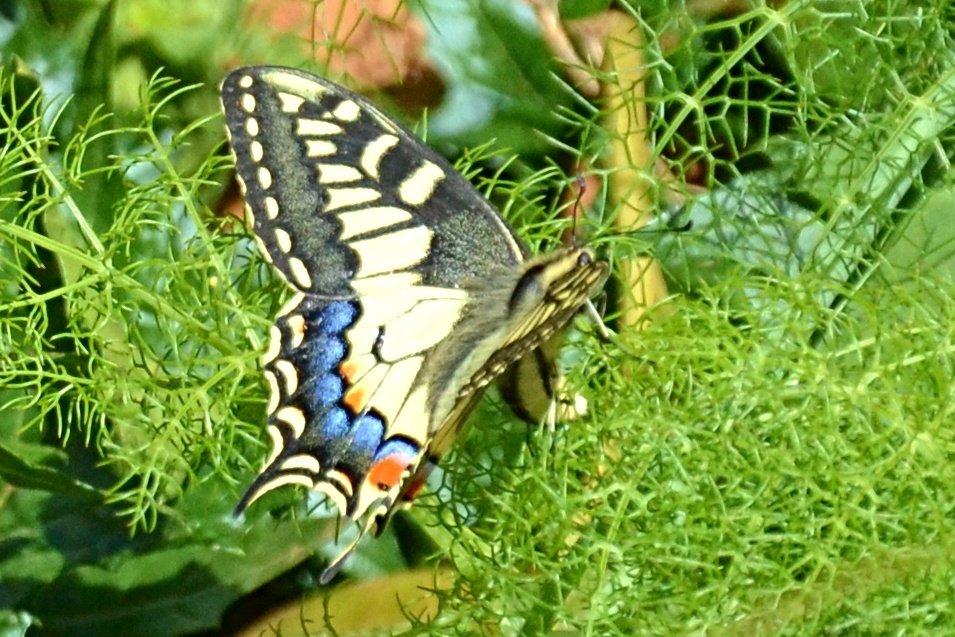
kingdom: Animalia
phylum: Arthropoda
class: Insecta
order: Lepidoptera
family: Papilionidae
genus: Papilio
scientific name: Papilio machaon
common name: Swallowtail
